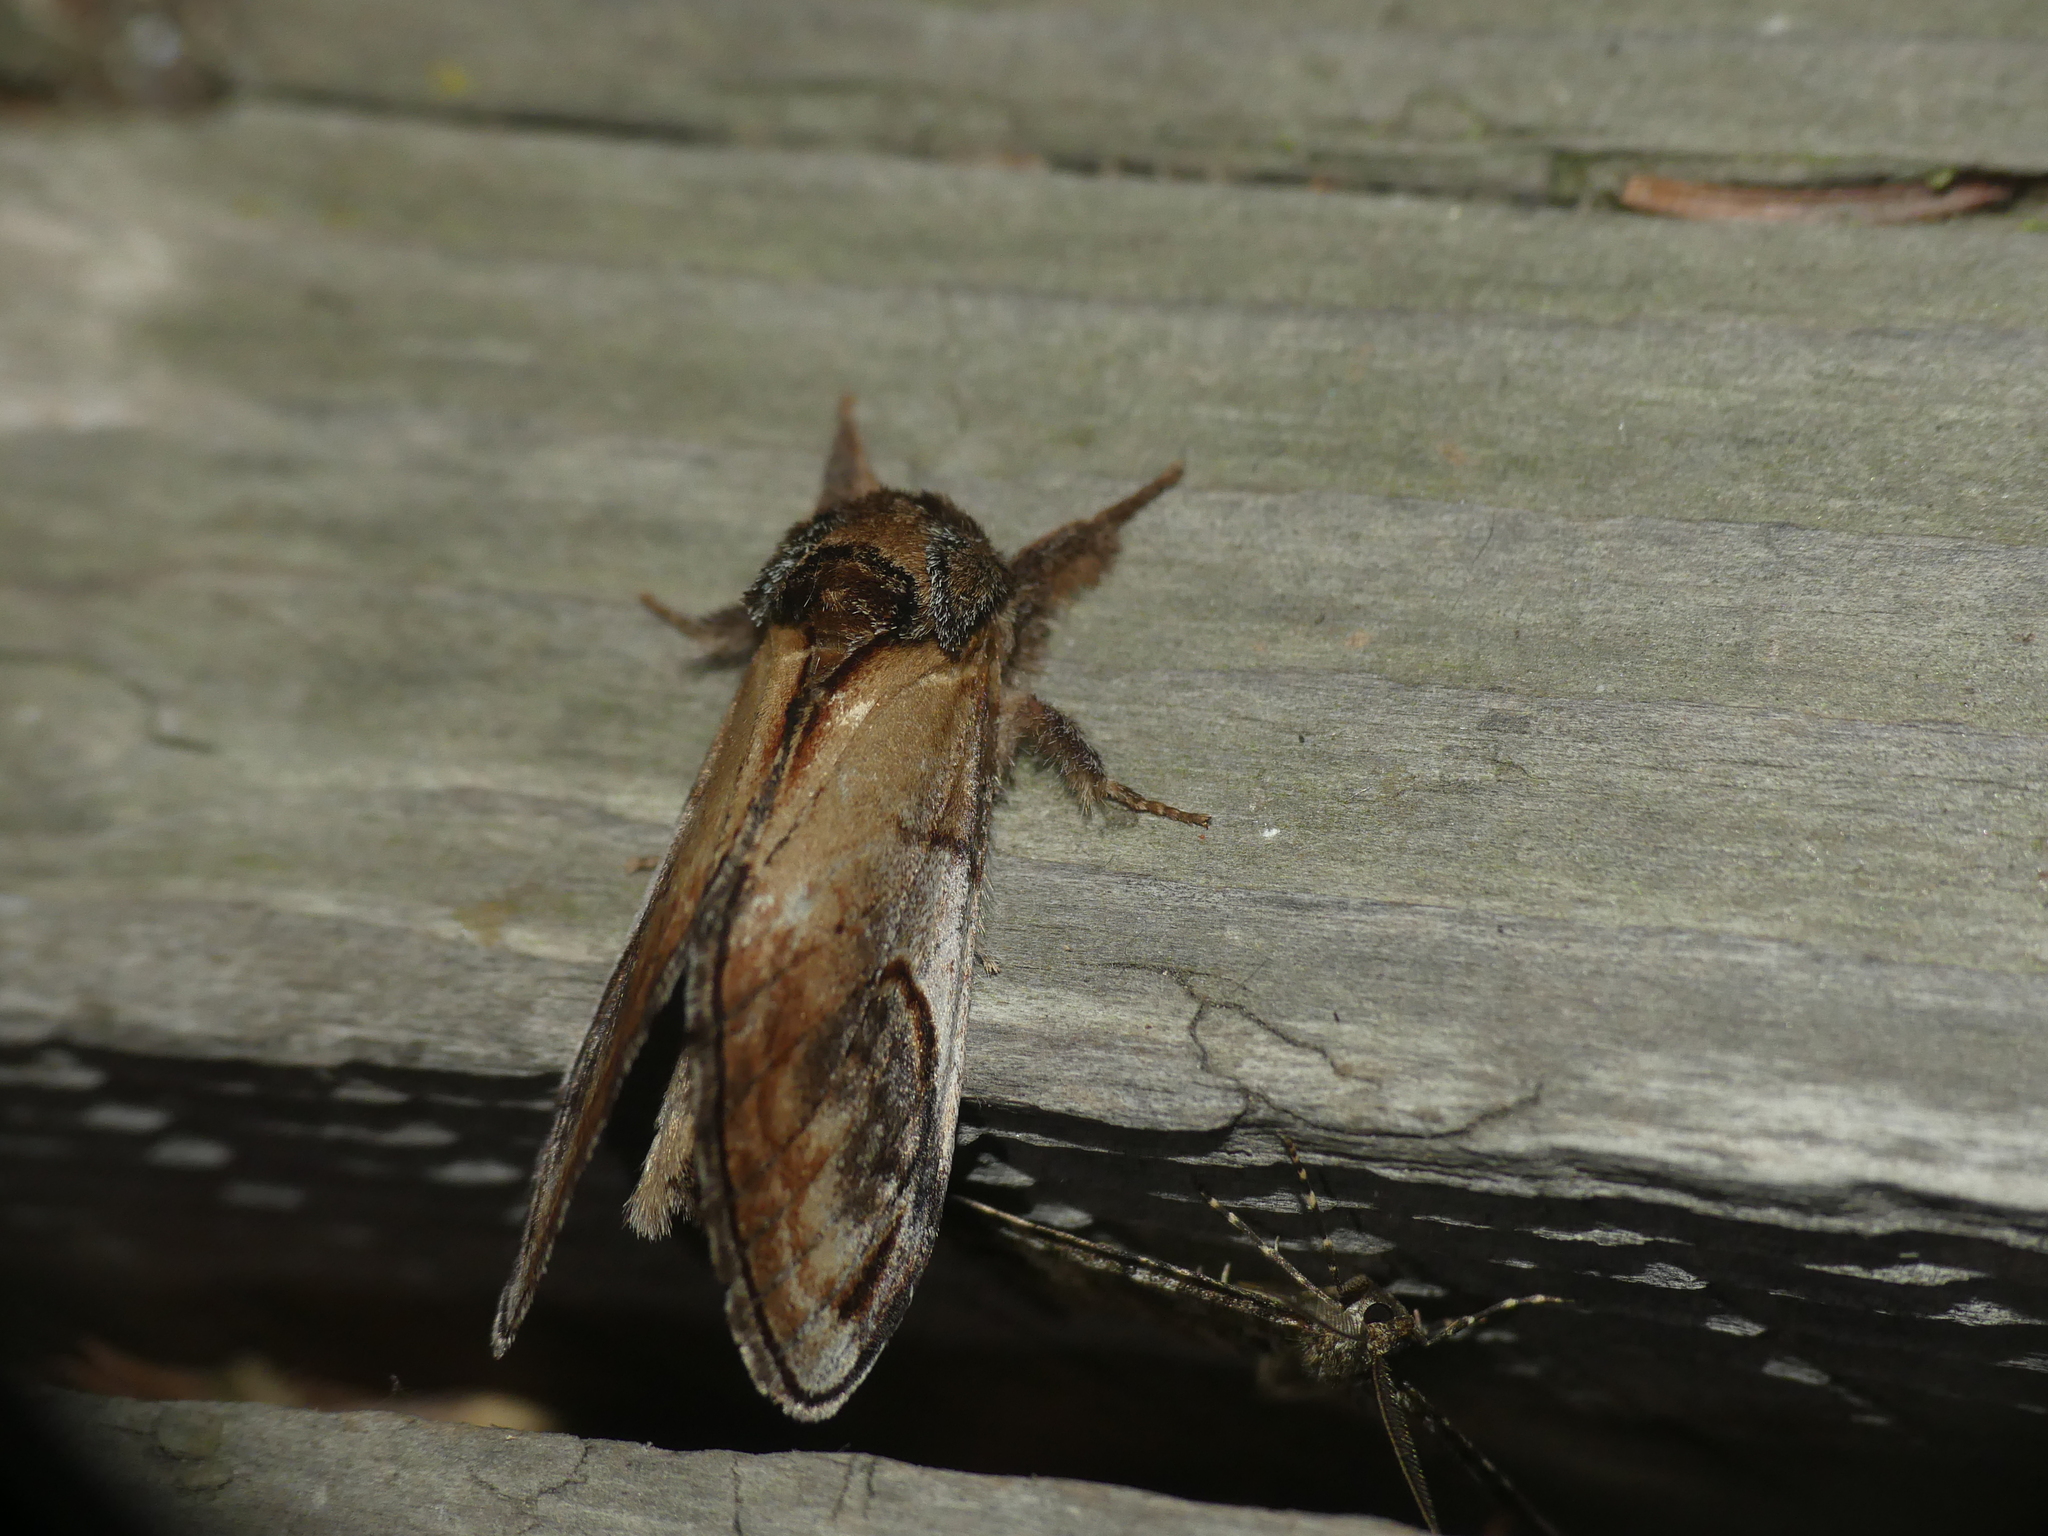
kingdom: Animalia
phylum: Arthropoda
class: Insecta
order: Lepidoptera
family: Notodontidae
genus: Notodonta
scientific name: Notodonta ziczac
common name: Pebble prominent
